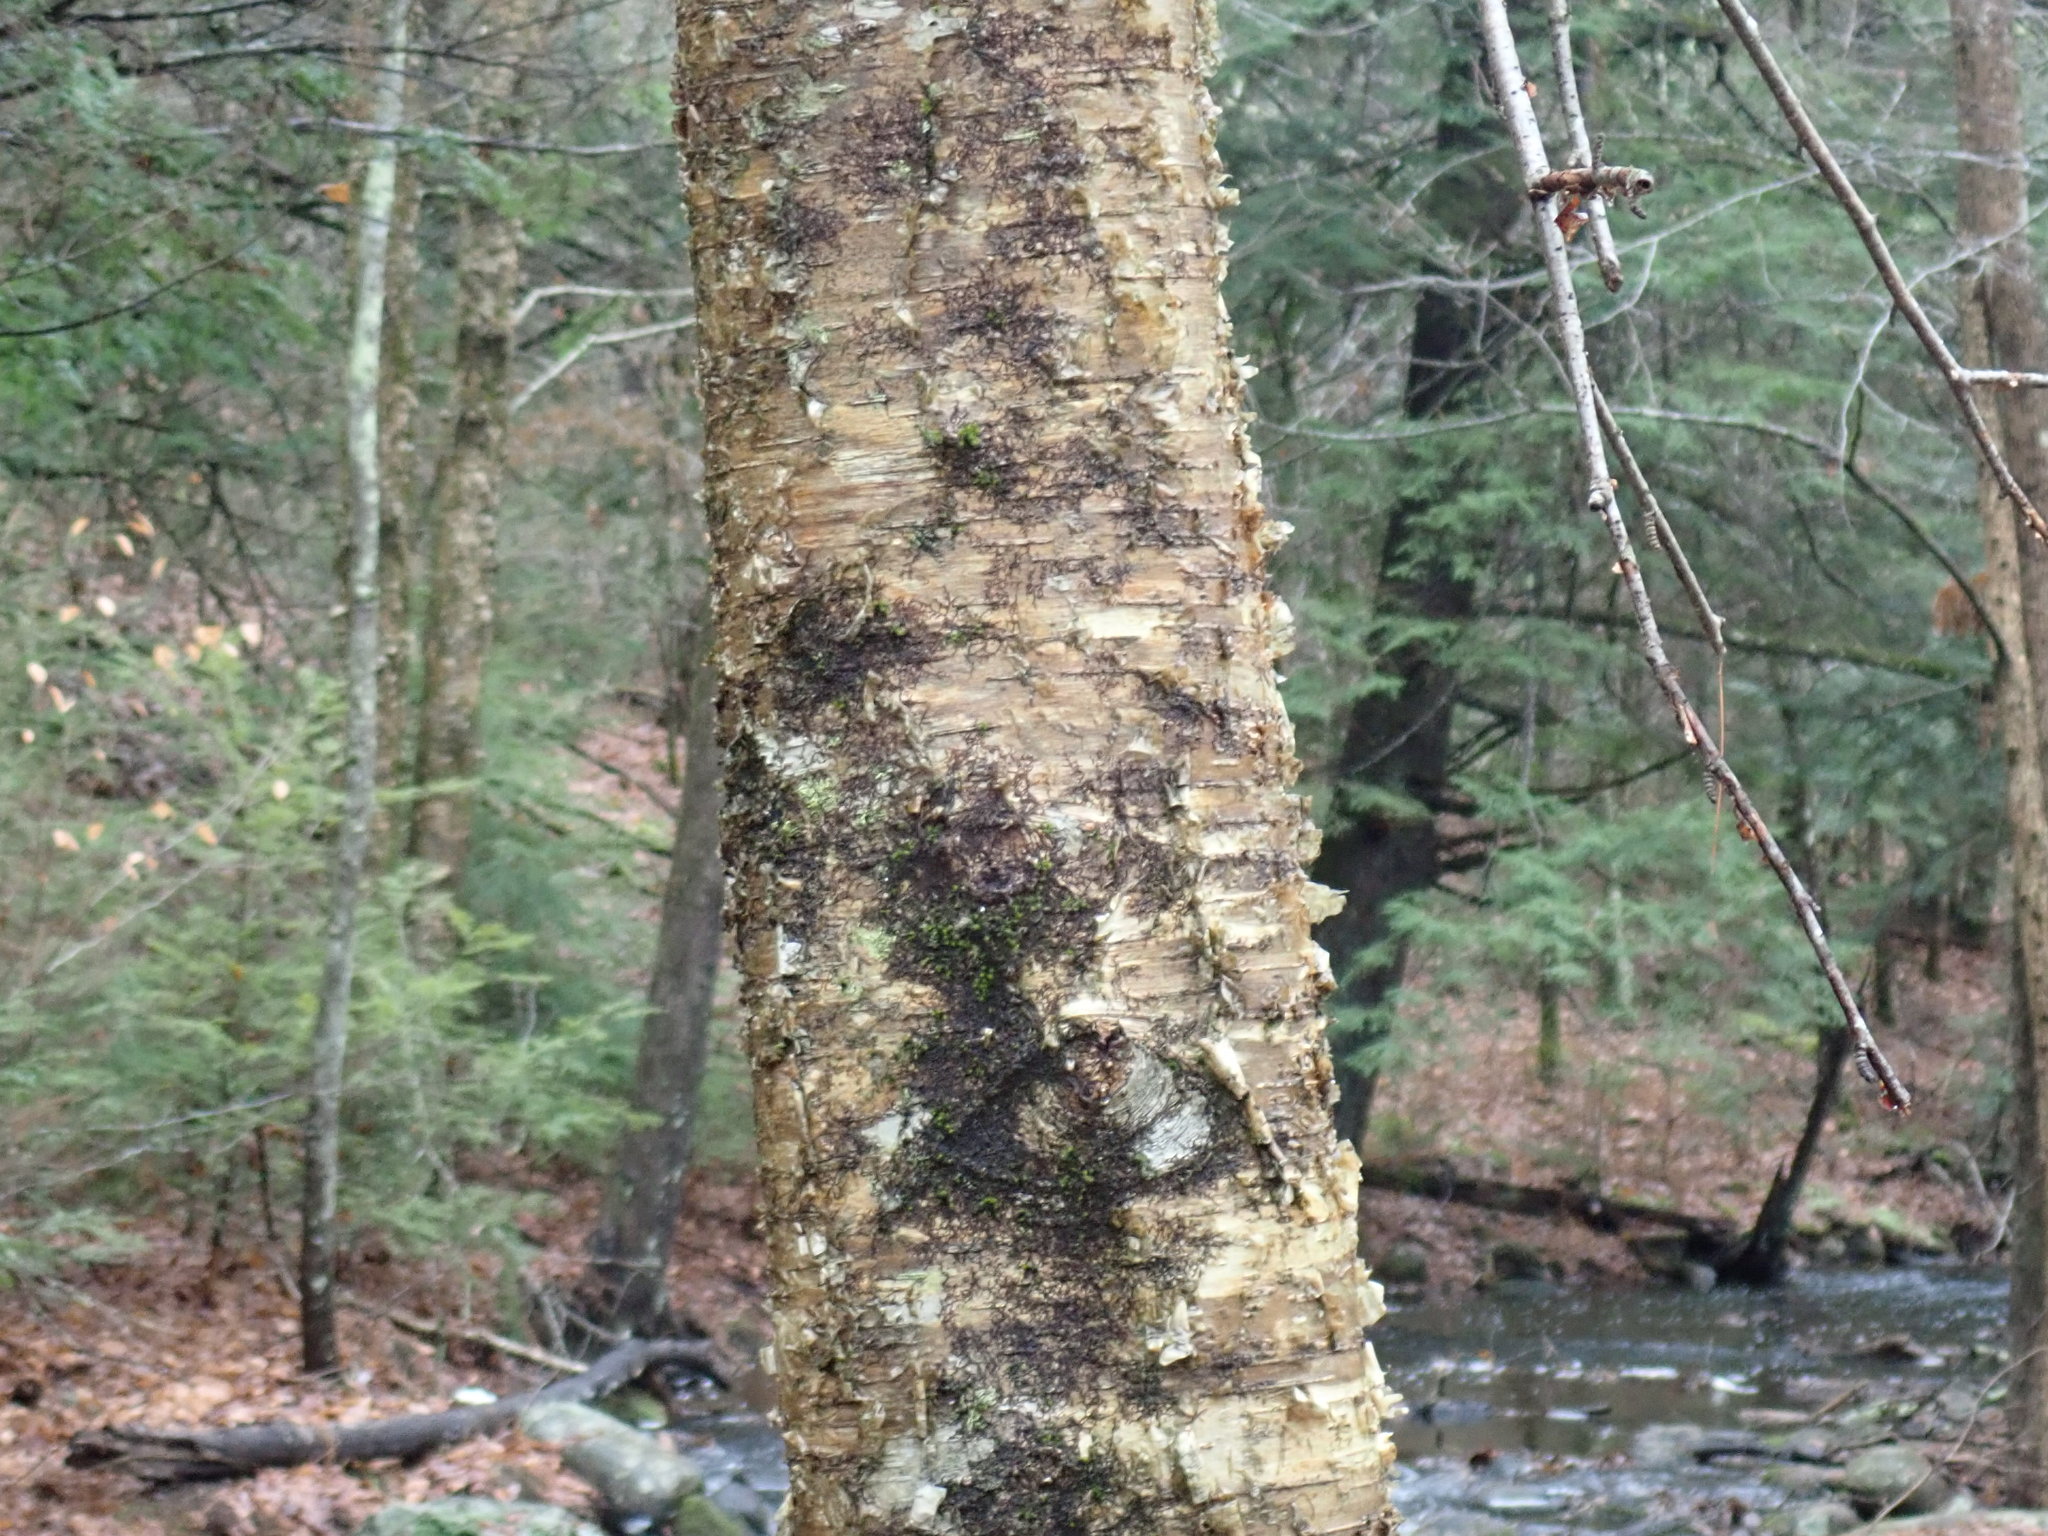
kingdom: Plantae
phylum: Tracheophyta
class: Magnoliopsida
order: Fagales
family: Betulaceae
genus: Betula
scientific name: Betula alleghaniensis
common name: Yellow birch
